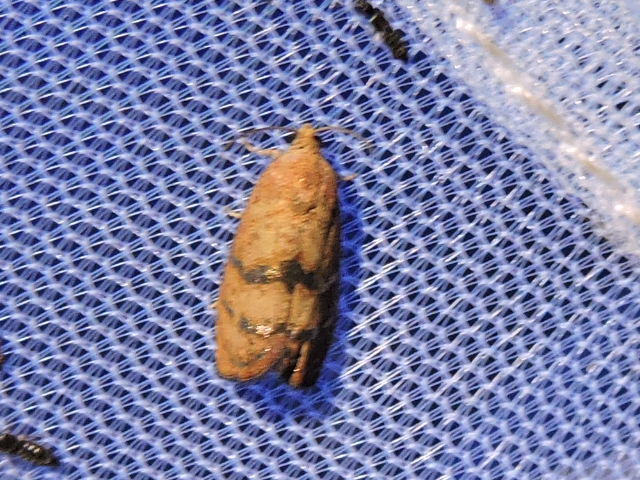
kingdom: Animalia
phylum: Arthropoda
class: Insecta
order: Lepidoptera
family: Tortricidae
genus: Cydia
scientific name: Cydia latiferreana
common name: Filbertworm moth
